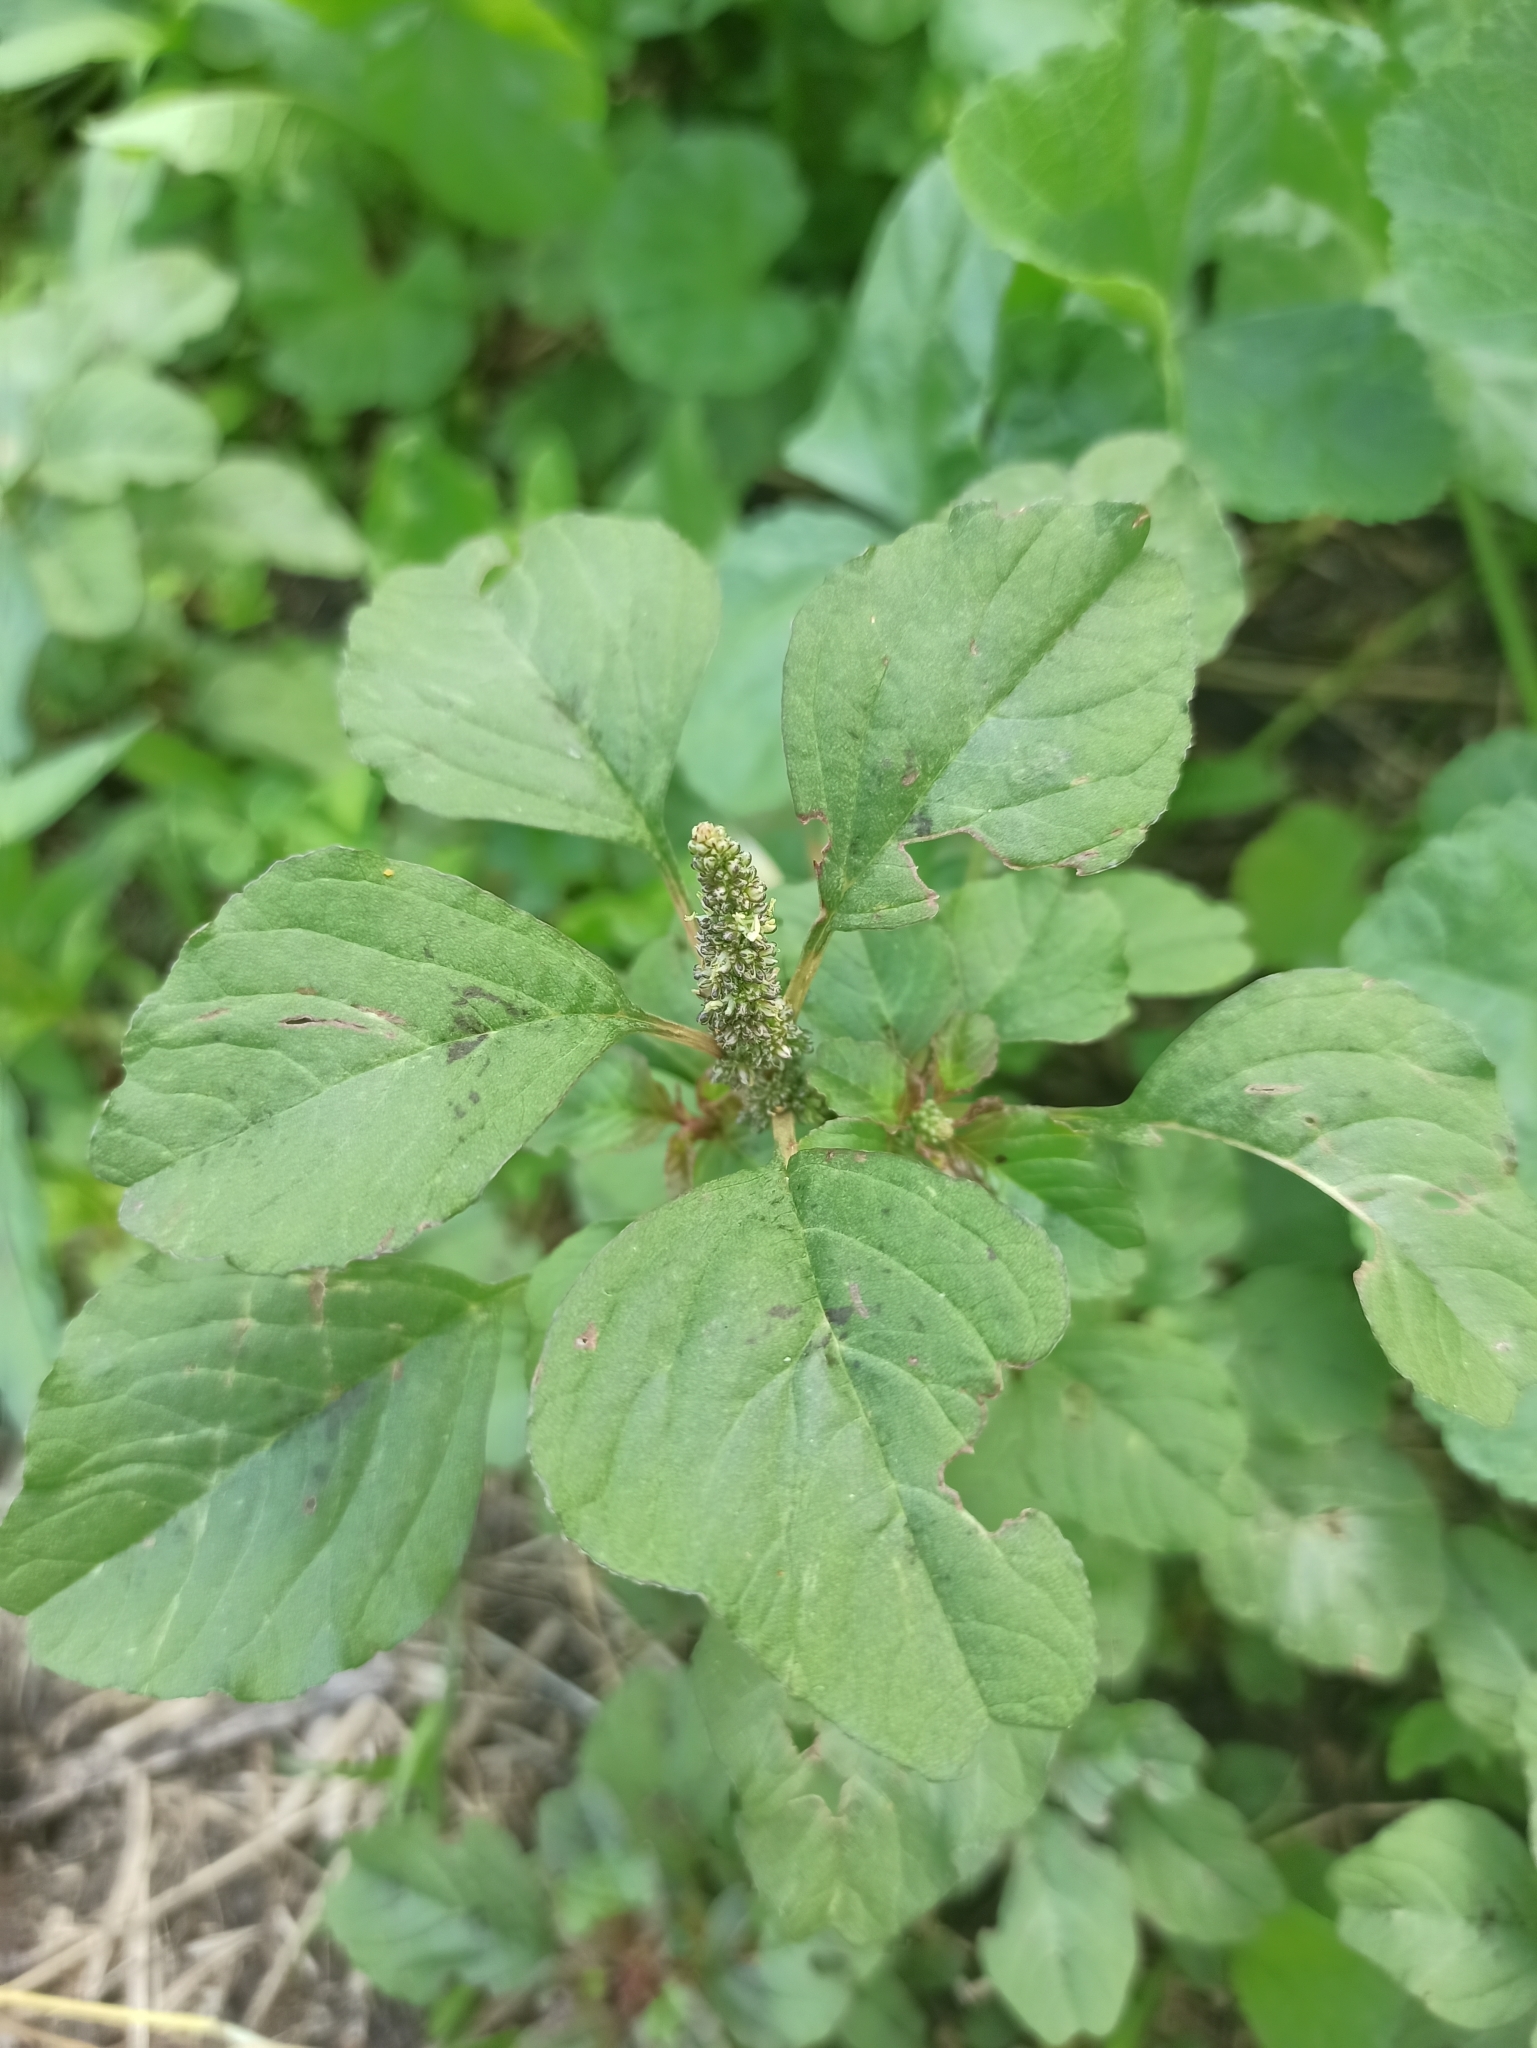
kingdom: Plantae
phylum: Tracheophyta
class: Magnoliopsida
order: Caryophyllales
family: Amaranthaceae
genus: Amaranthus
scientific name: Amaranthus blitum
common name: Purple amaranth
